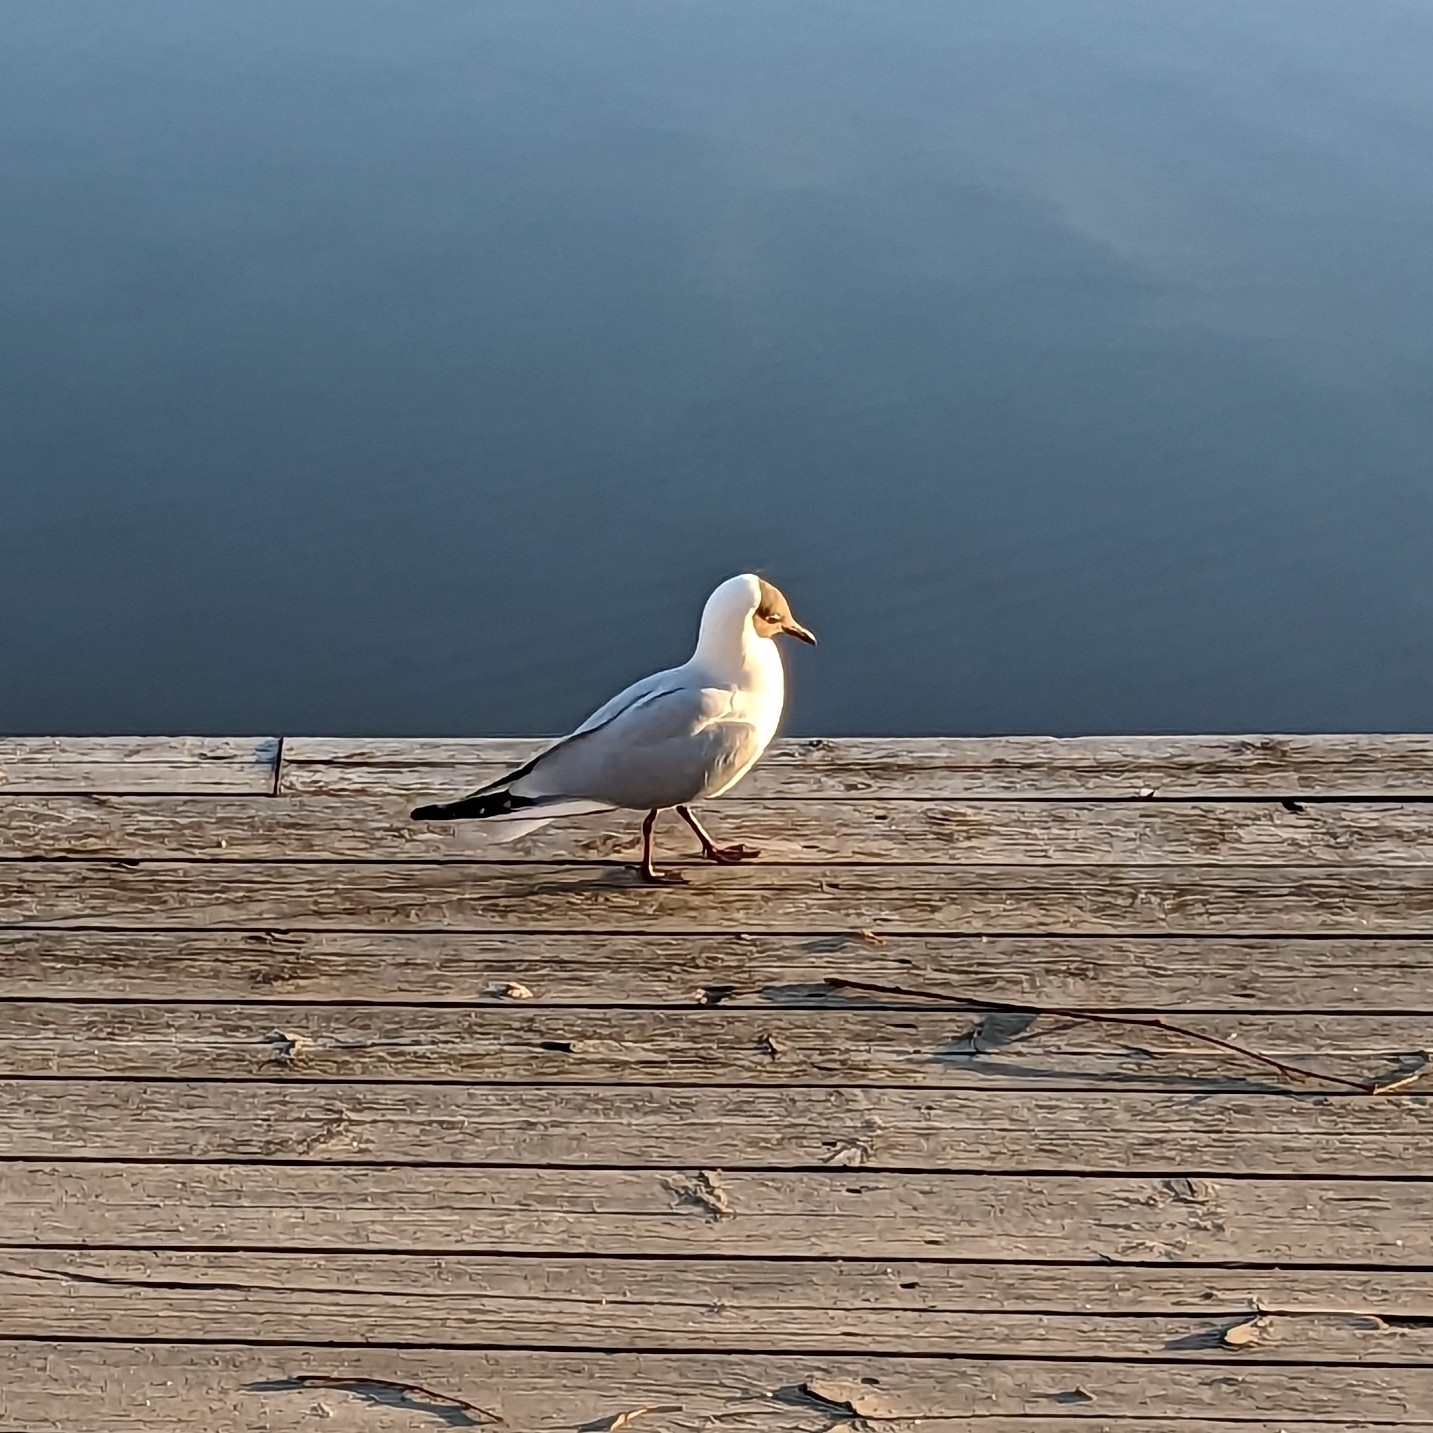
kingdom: Animalia
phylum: Chordata
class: Aves
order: Charadriiformes
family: Laridae
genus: Chroicocephalus
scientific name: Chroicocephalus ridibundus
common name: Black-headed gull
